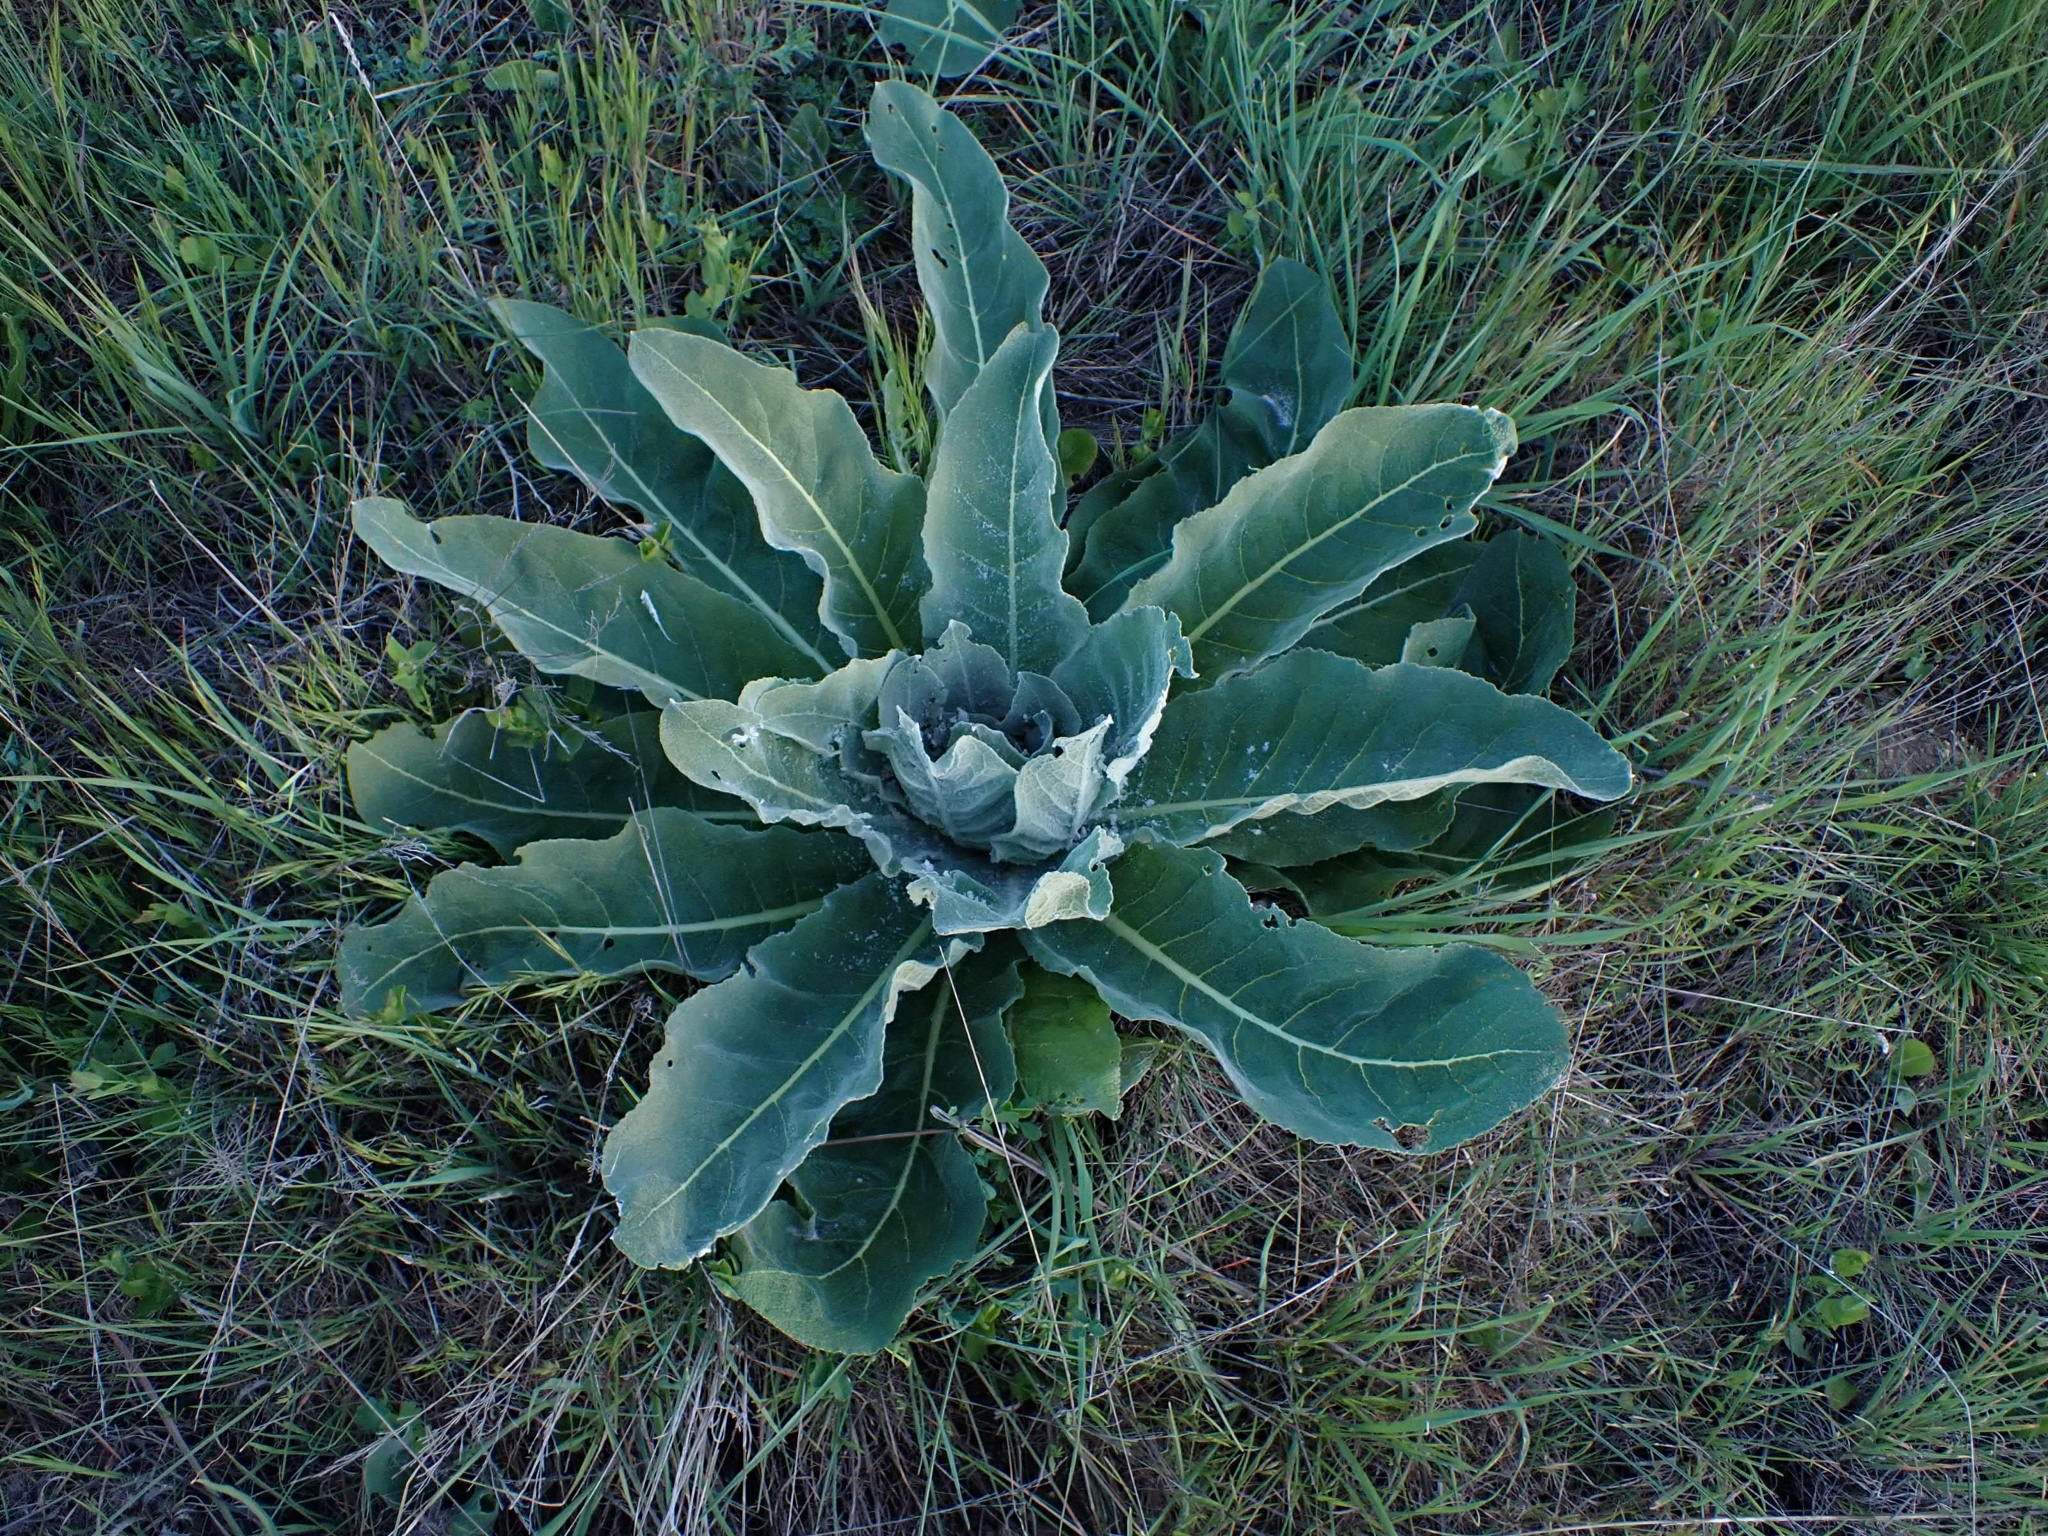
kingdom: Plantae
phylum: Tracheophyta
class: Magnoliopsida
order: Lamiales
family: Scrophulariaceae
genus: Verbascum
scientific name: Verbascum pulverulentum
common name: Broad-leaf mullein
